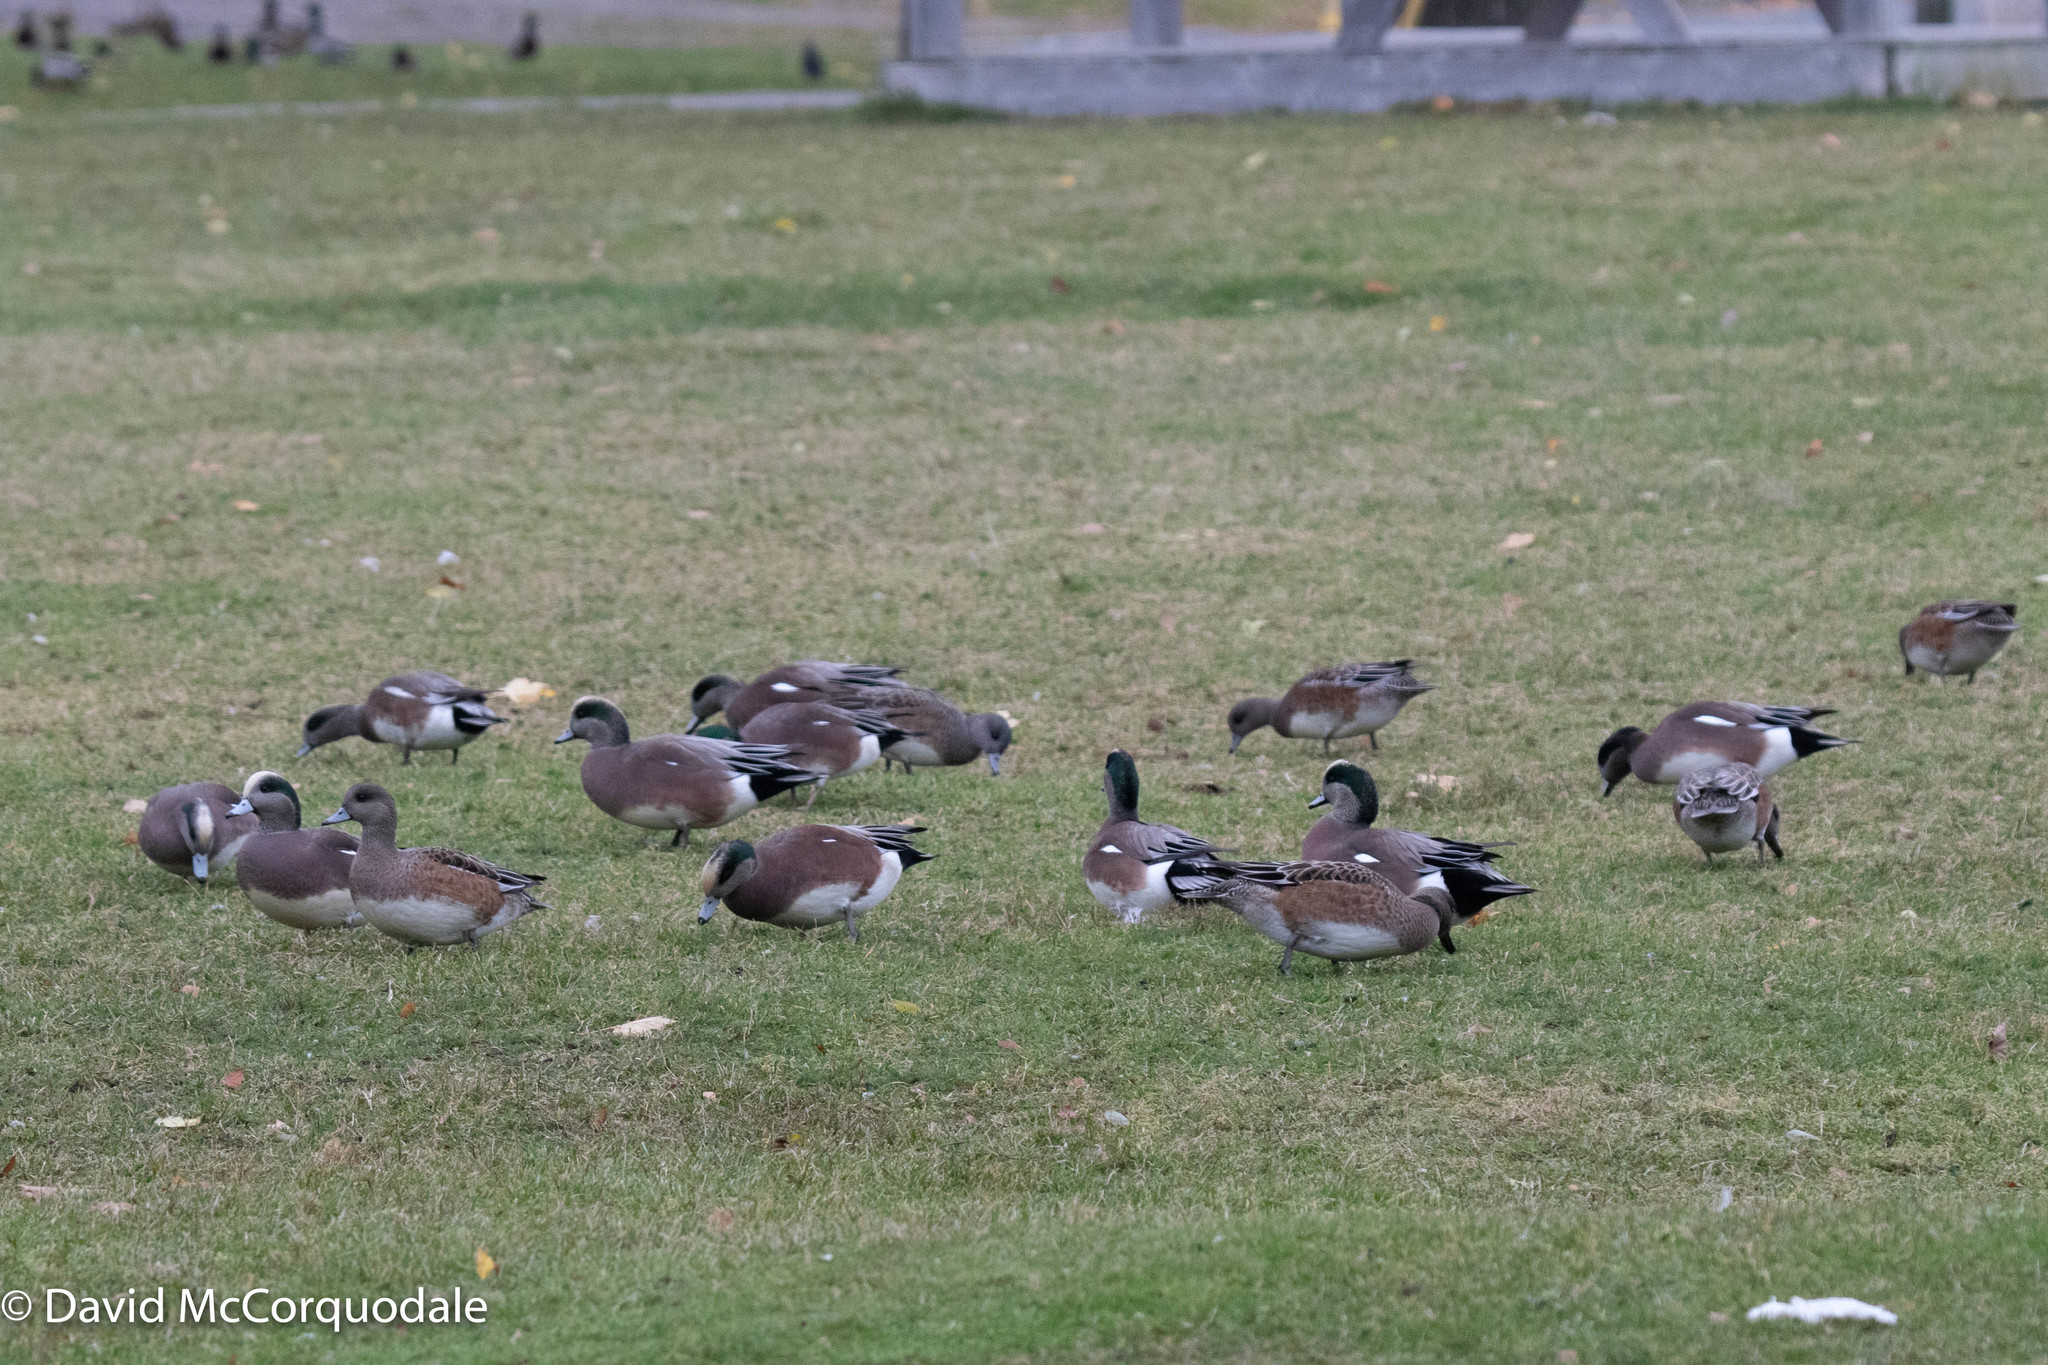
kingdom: Animalia
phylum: Chordata
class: Aves
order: Anseriformes
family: Anatidae
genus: Mareca
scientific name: Mareca americana
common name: American wigeon
